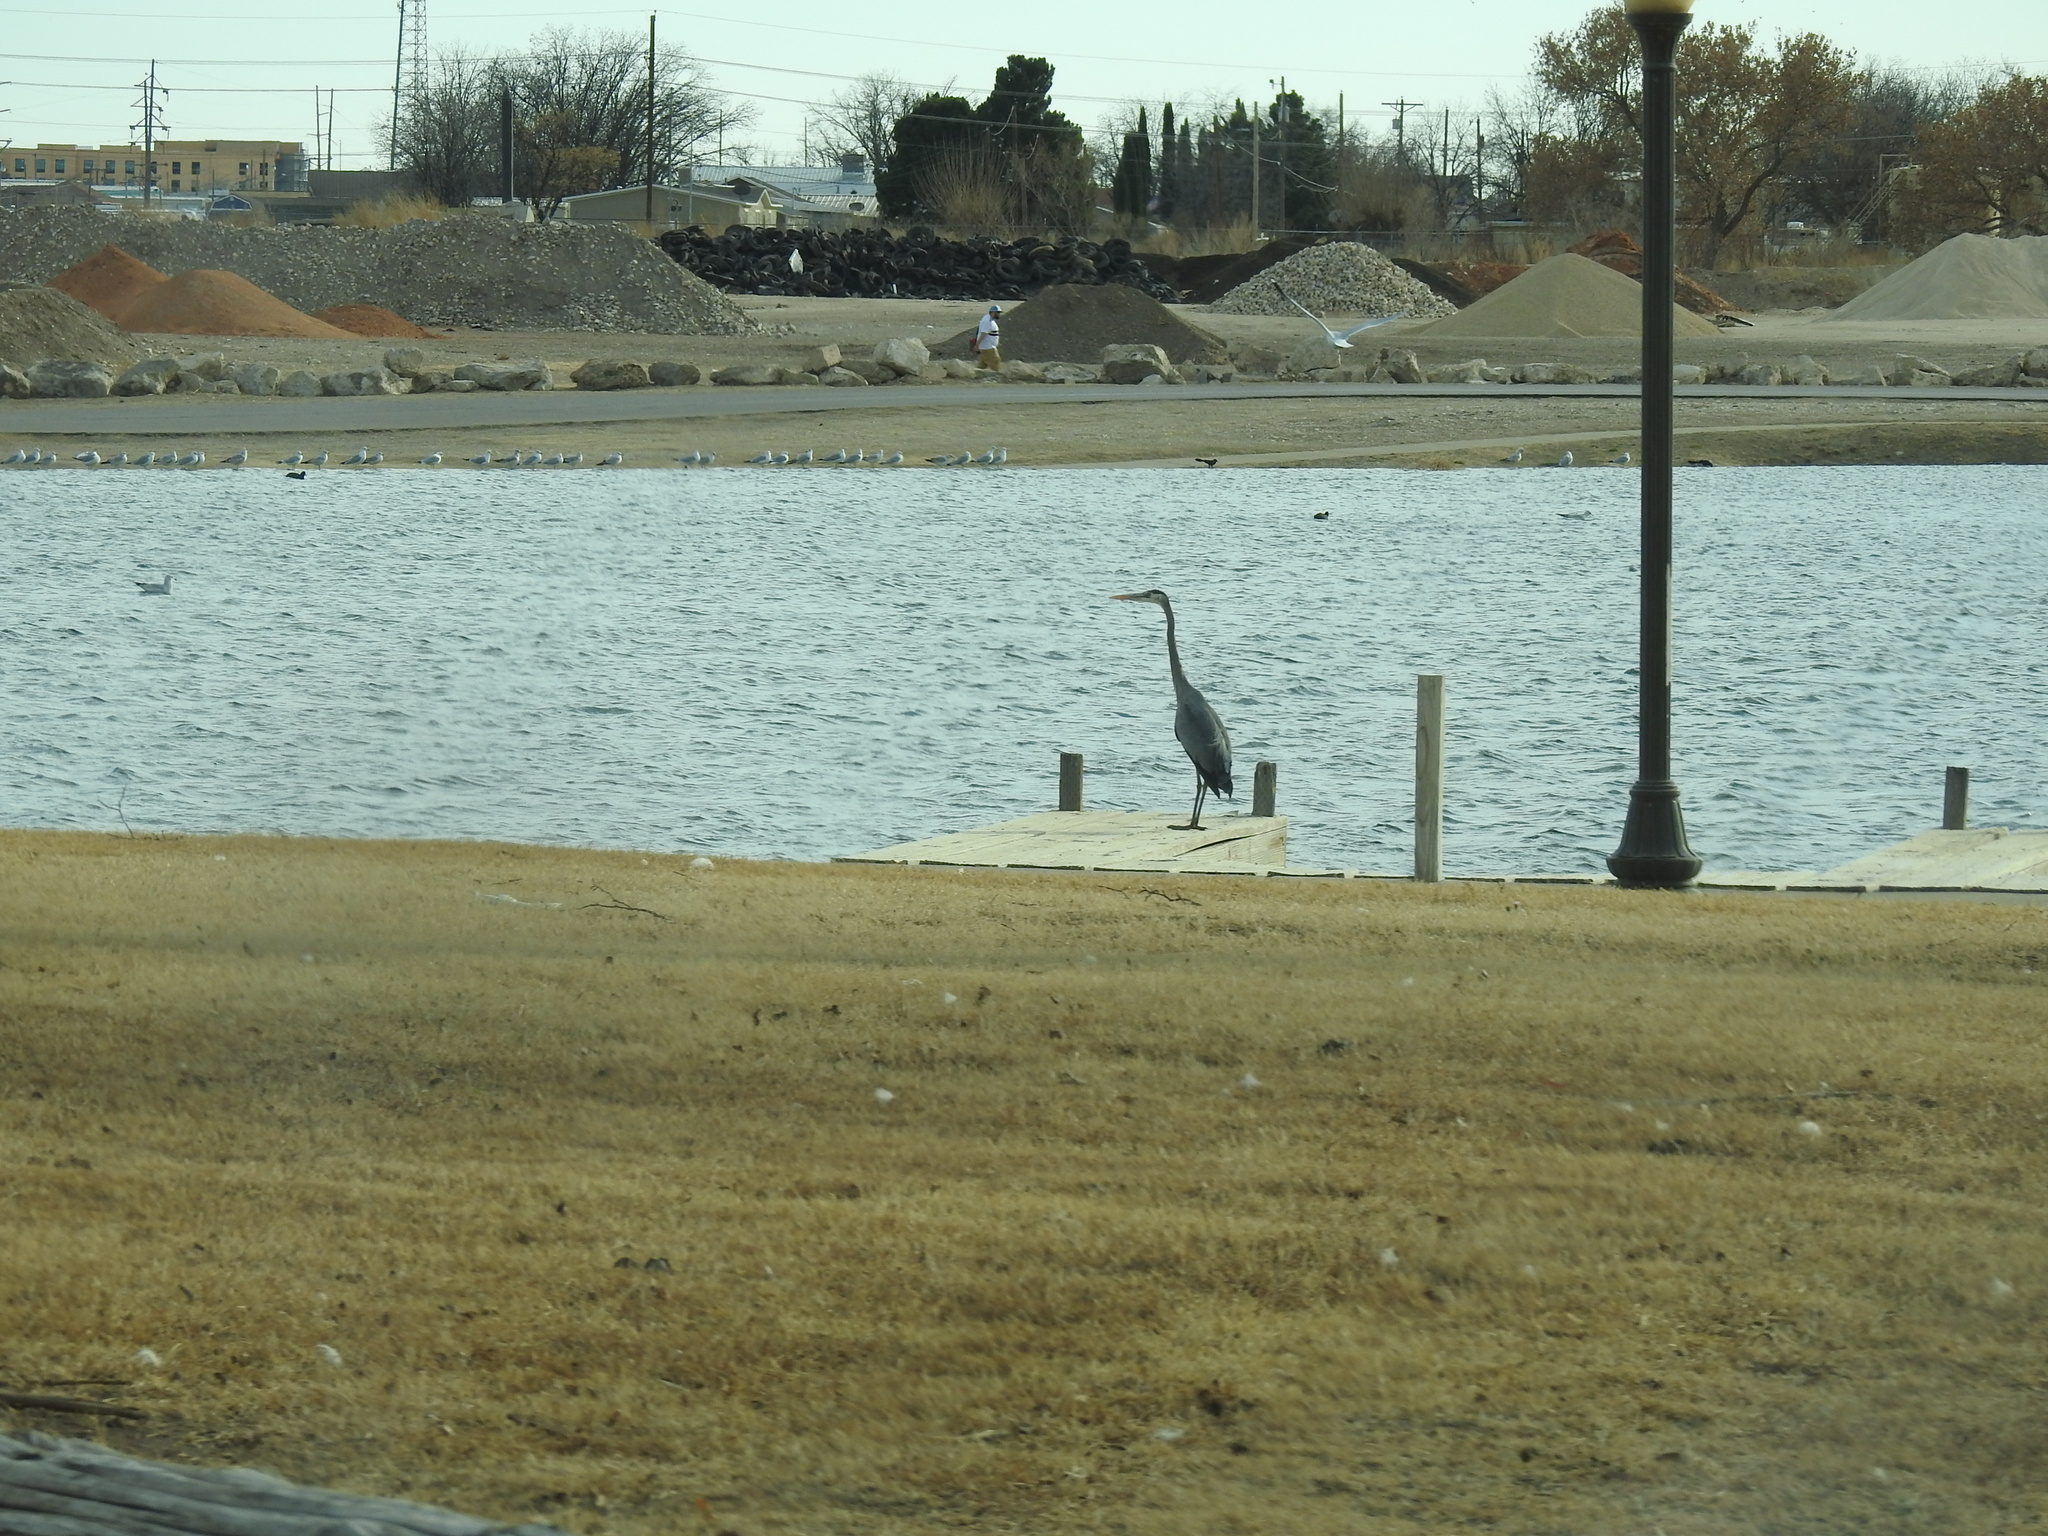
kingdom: Animalia
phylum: Chordata
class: Aves
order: Pelecaniformes
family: Ardeidae
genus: Ardea
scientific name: Ardea herodias
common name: Great blue heron
